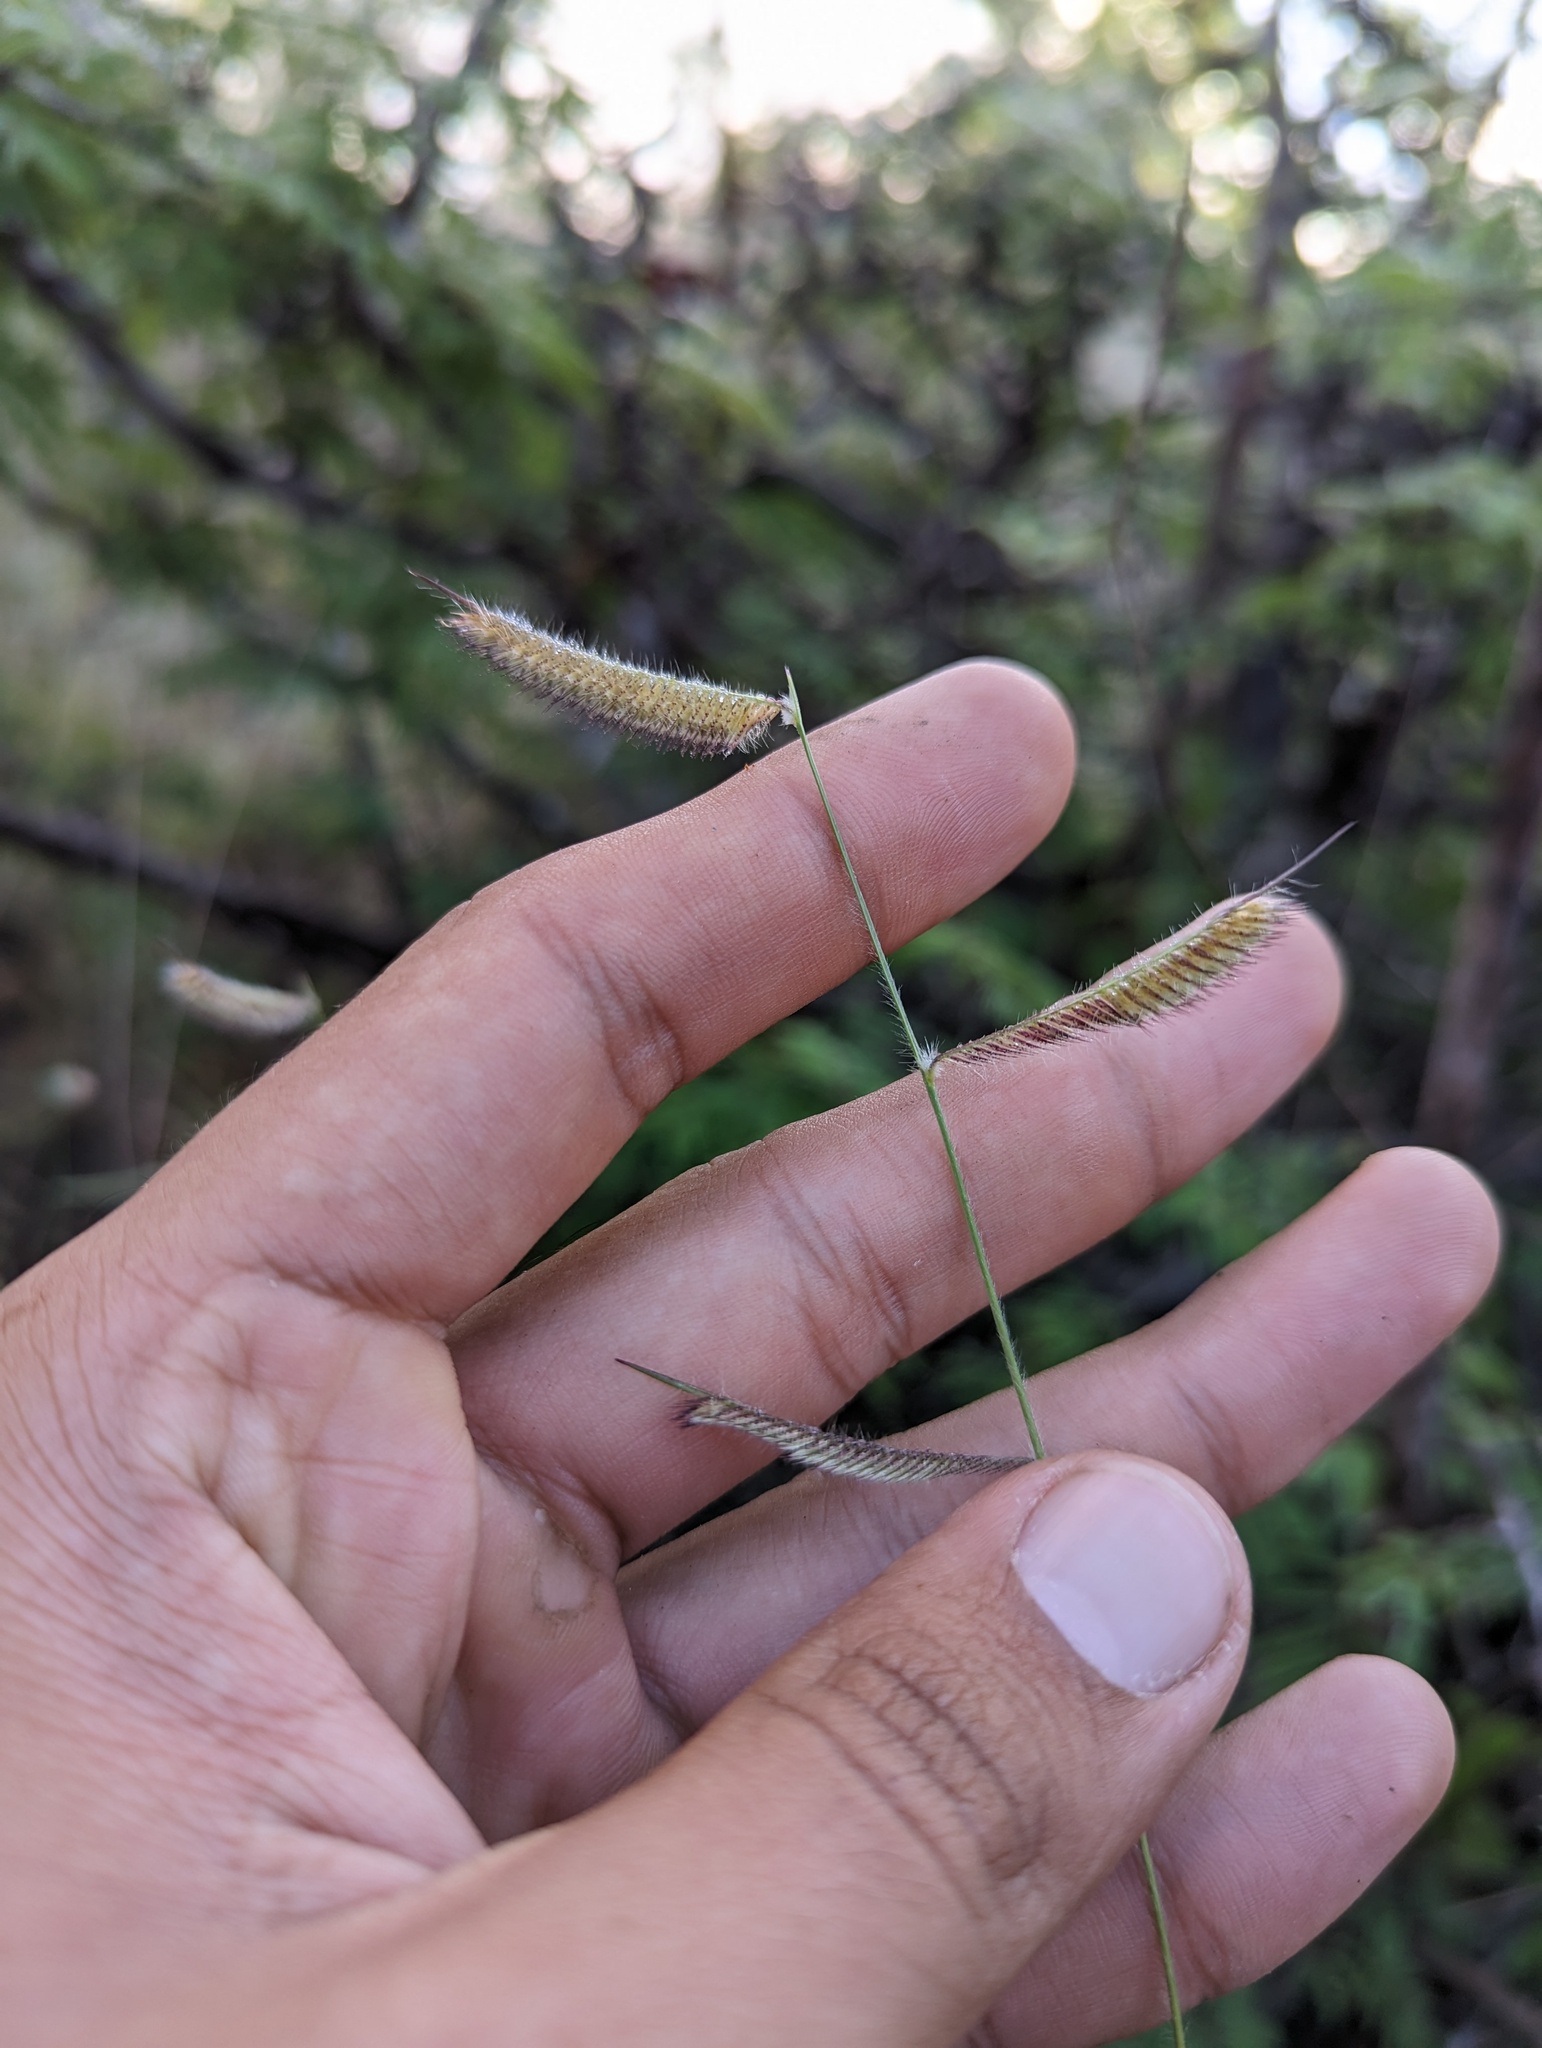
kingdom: Plantae
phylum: Tracheophyta
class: Liliopsida
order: Poales
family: Poaceae
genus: Bouteloua
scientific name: Bouteloua hirsuta
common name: Hairy grama
